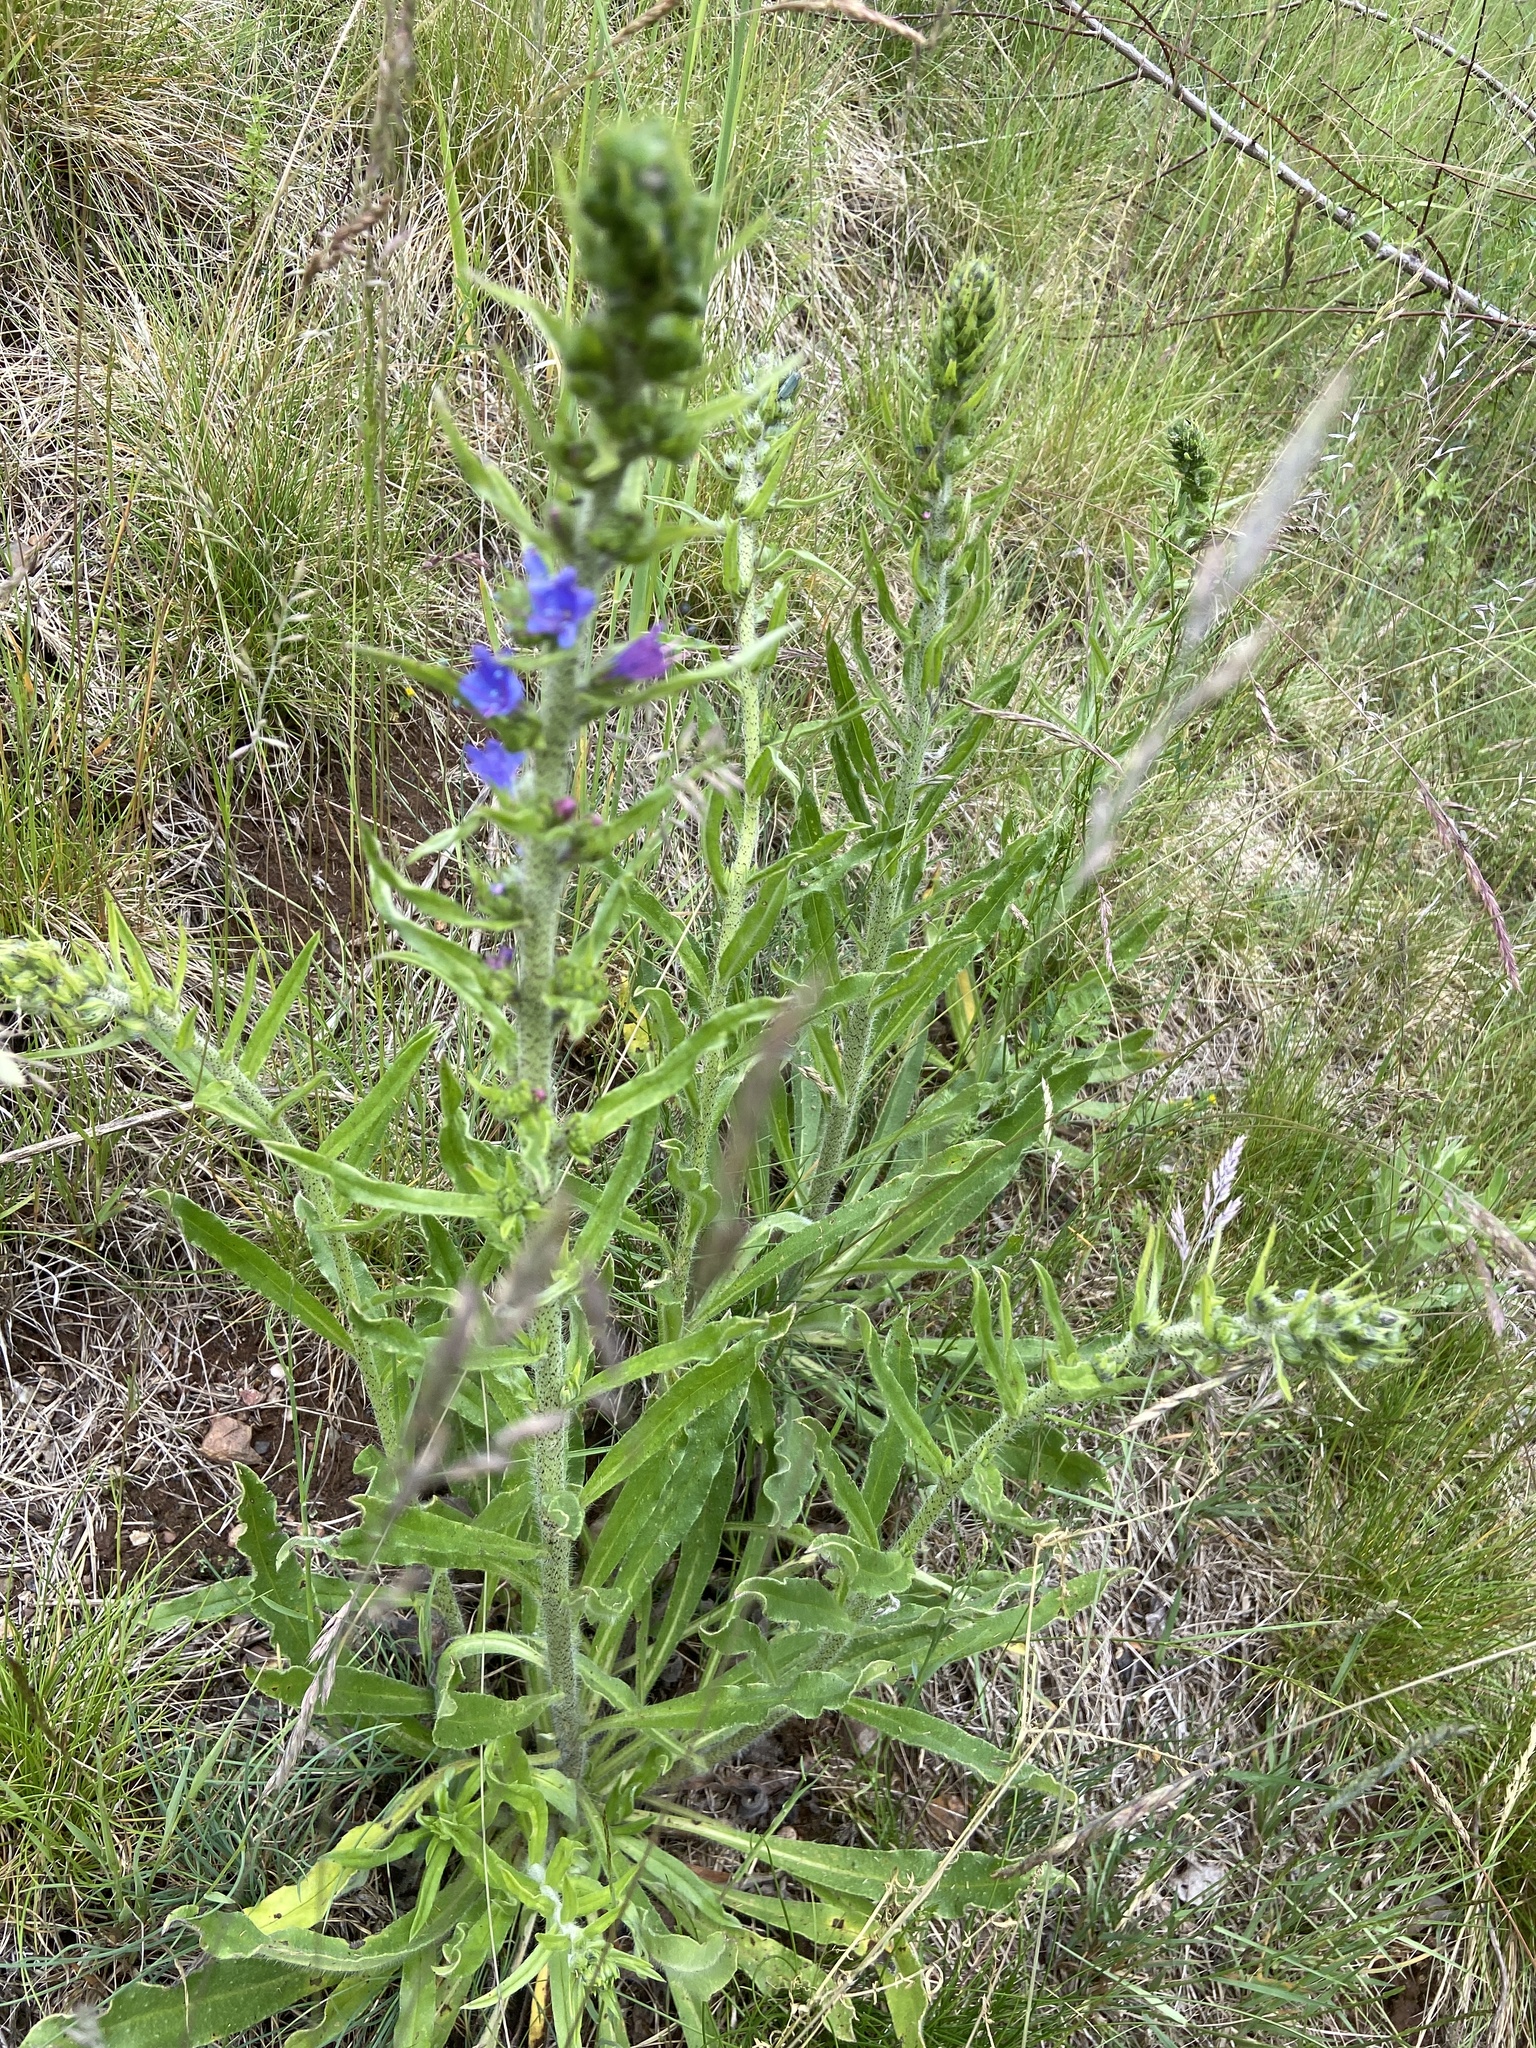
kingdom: Plantae
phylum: Tracheophyta
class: Magnoliopsida
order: Boraginales
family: Boraginaceae
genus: Echium
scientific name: Echium vulgare
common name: Common viper's bugloss
